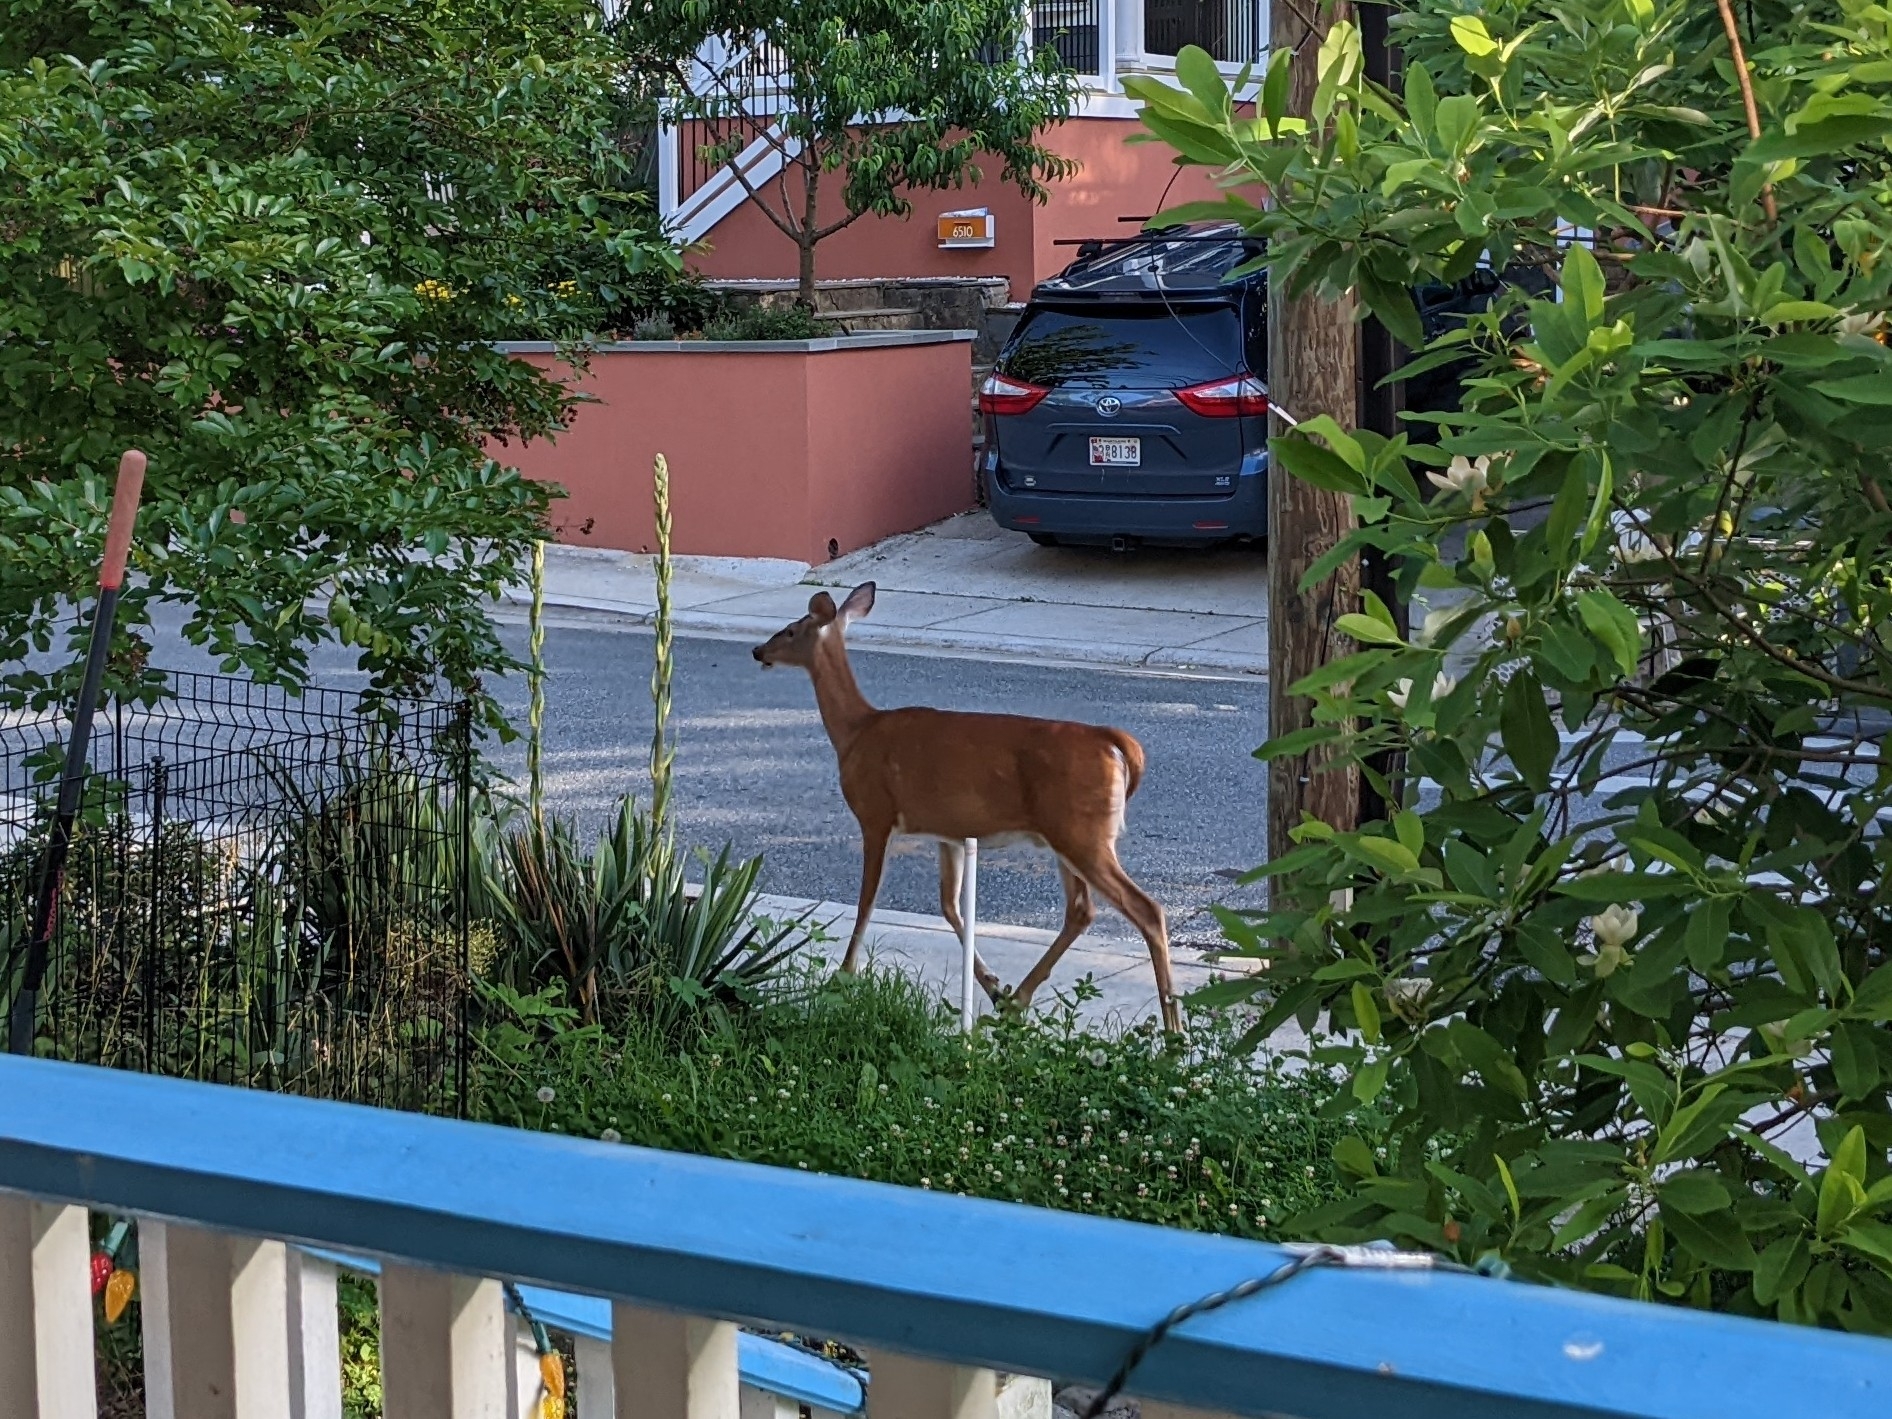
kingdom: Animalia
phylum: Chordata
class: Mammalia
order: Artiodactyla
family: Cervidae
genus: Odocoileus
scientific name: Odocoileus virginianus
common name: White-tailed deer
